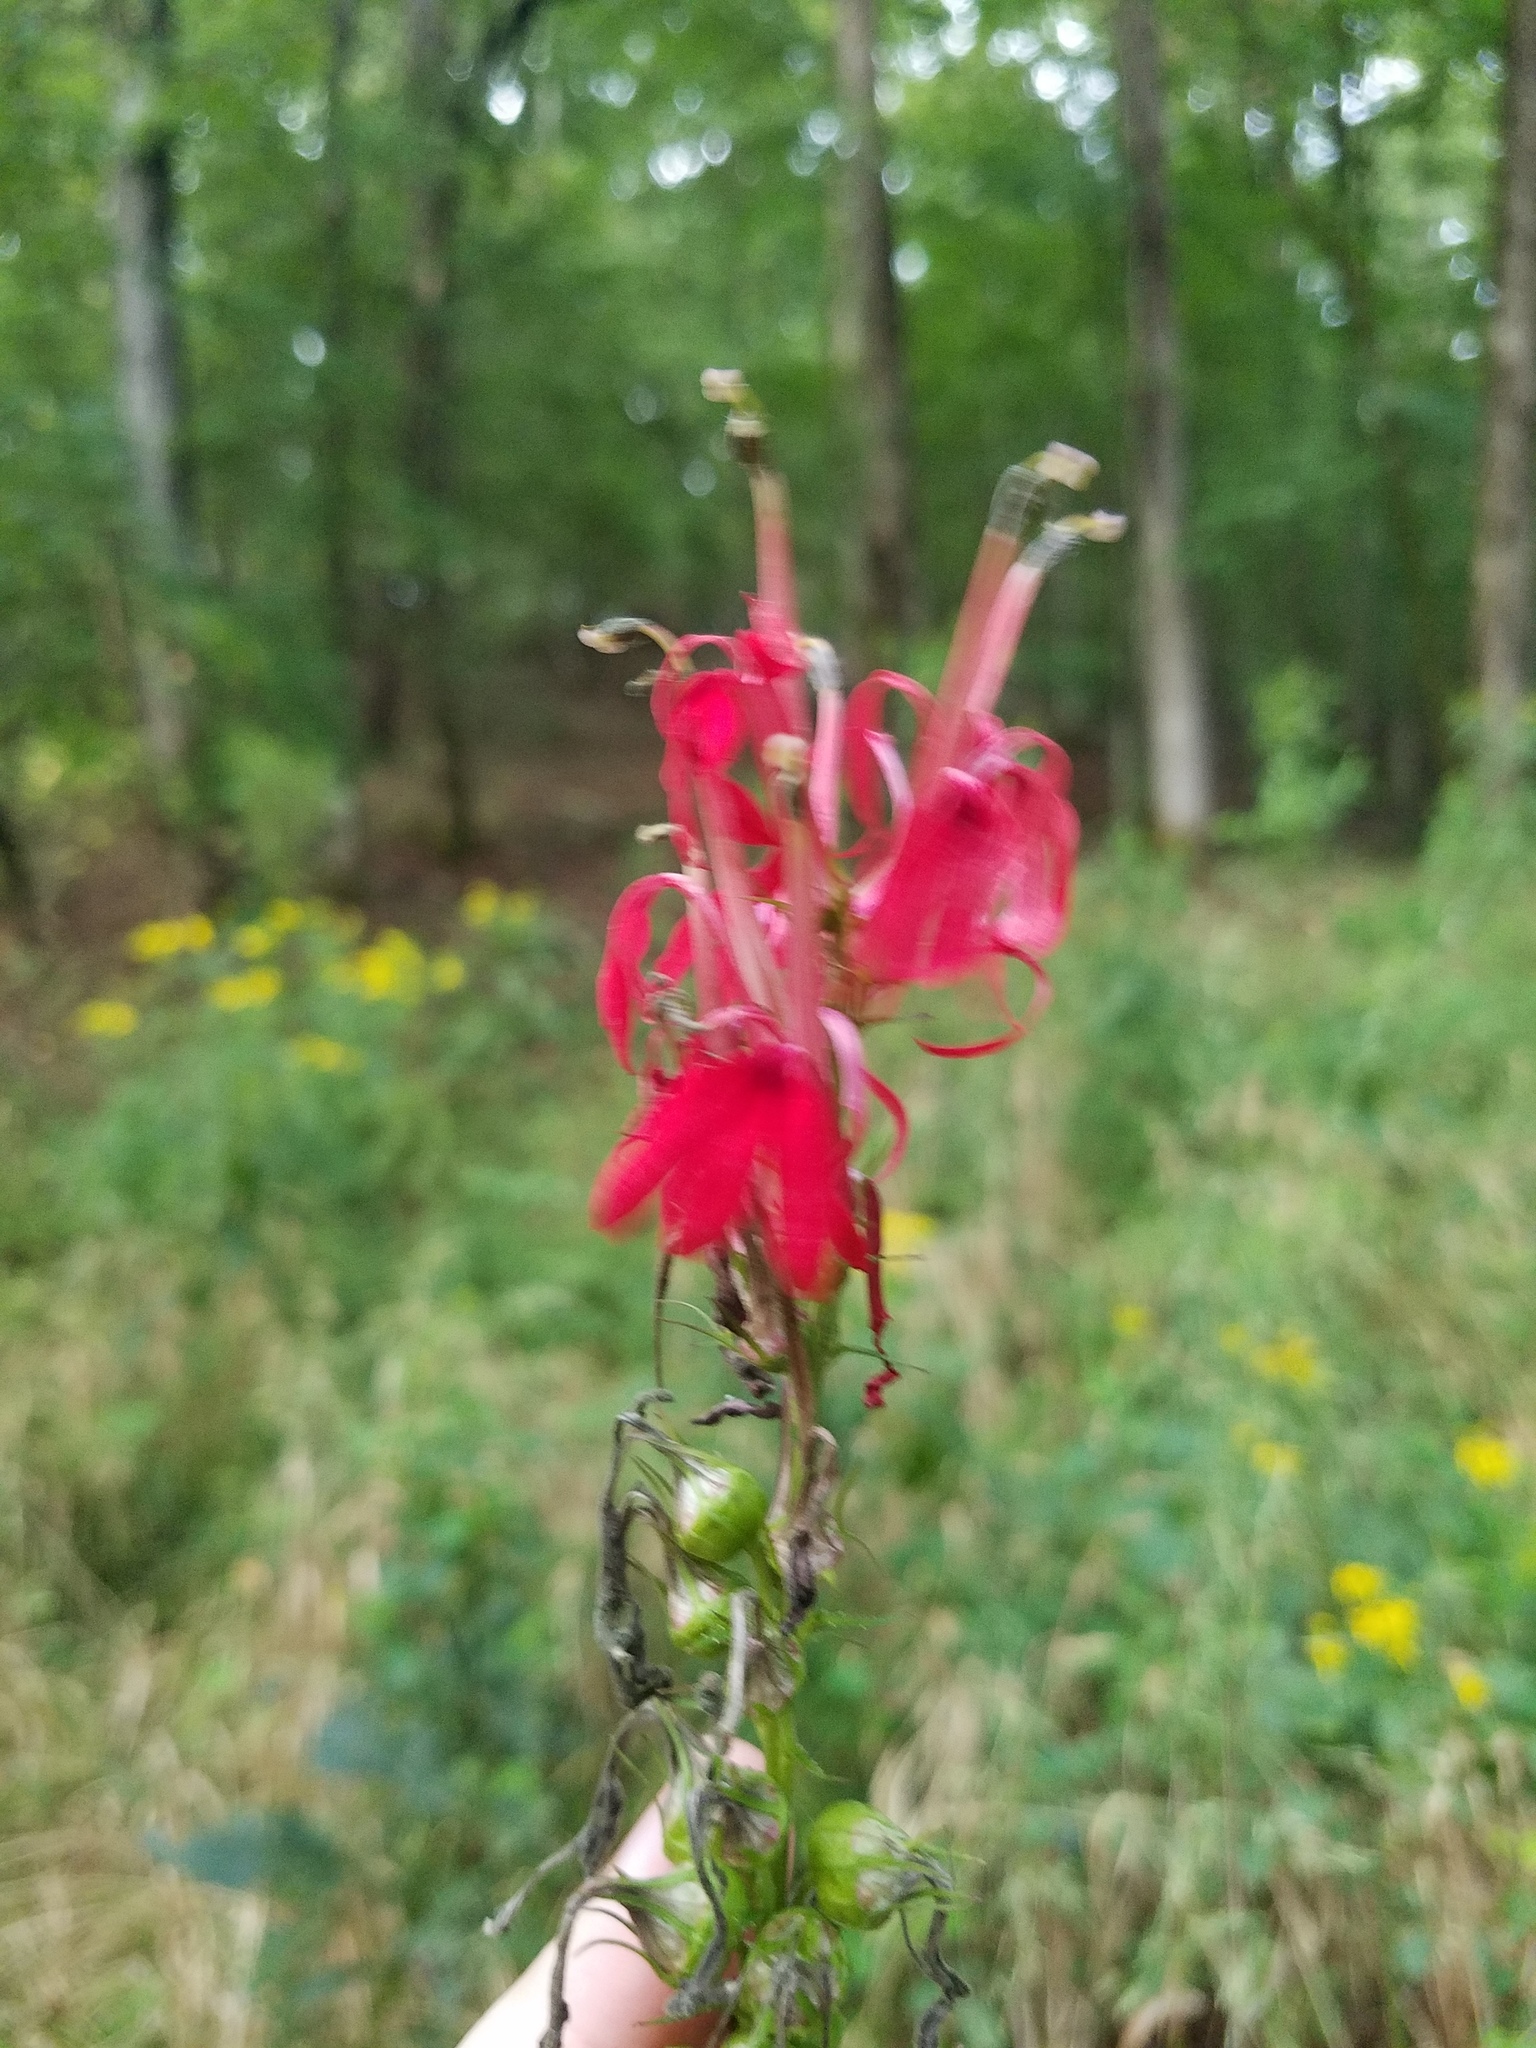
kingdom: Plantae
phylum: Tracheophyta
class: Magnoliopsida
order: Asterales
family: Campanulaceae
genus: Lobelia
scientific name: Lobelia cardinalis
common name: Cardinal flower
